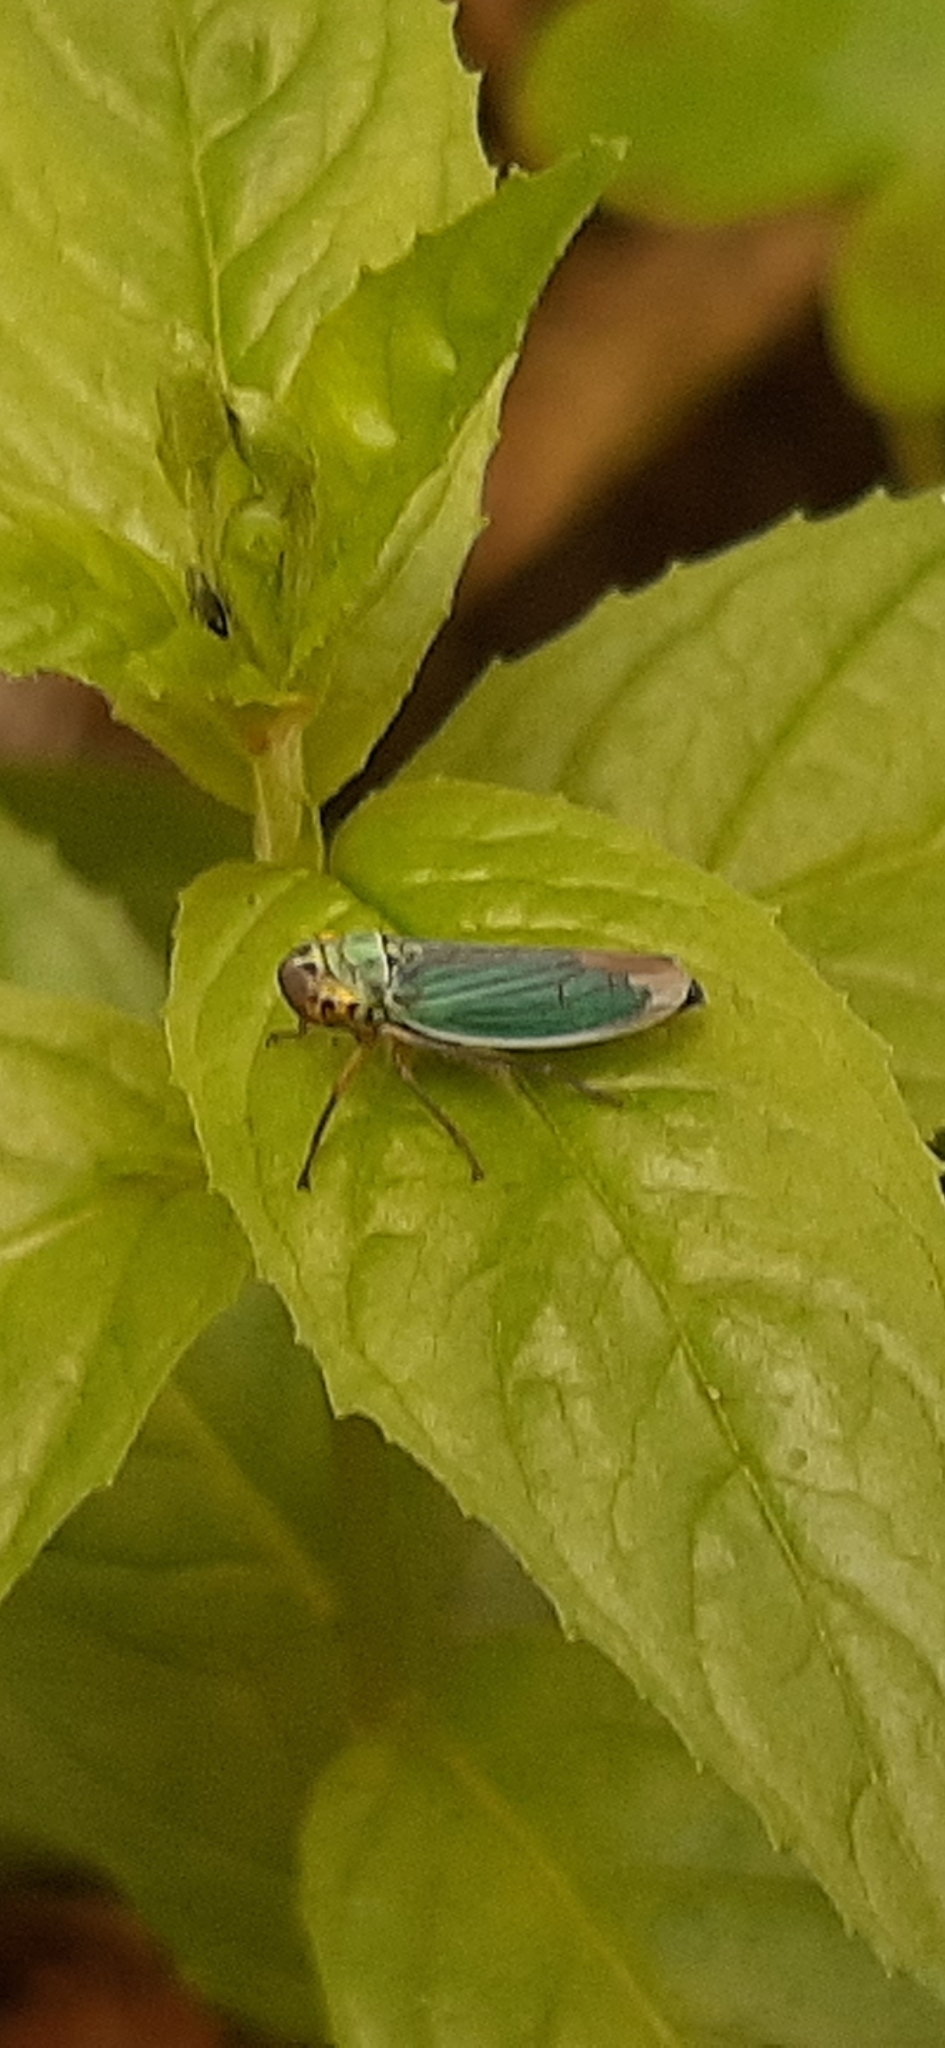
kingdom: Animalia
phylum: Arthropoda
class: Insecta
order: Hemiptera
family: Cicadellidae
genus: Cicadella
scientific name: Cicadella viridis
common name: Leafhopper
